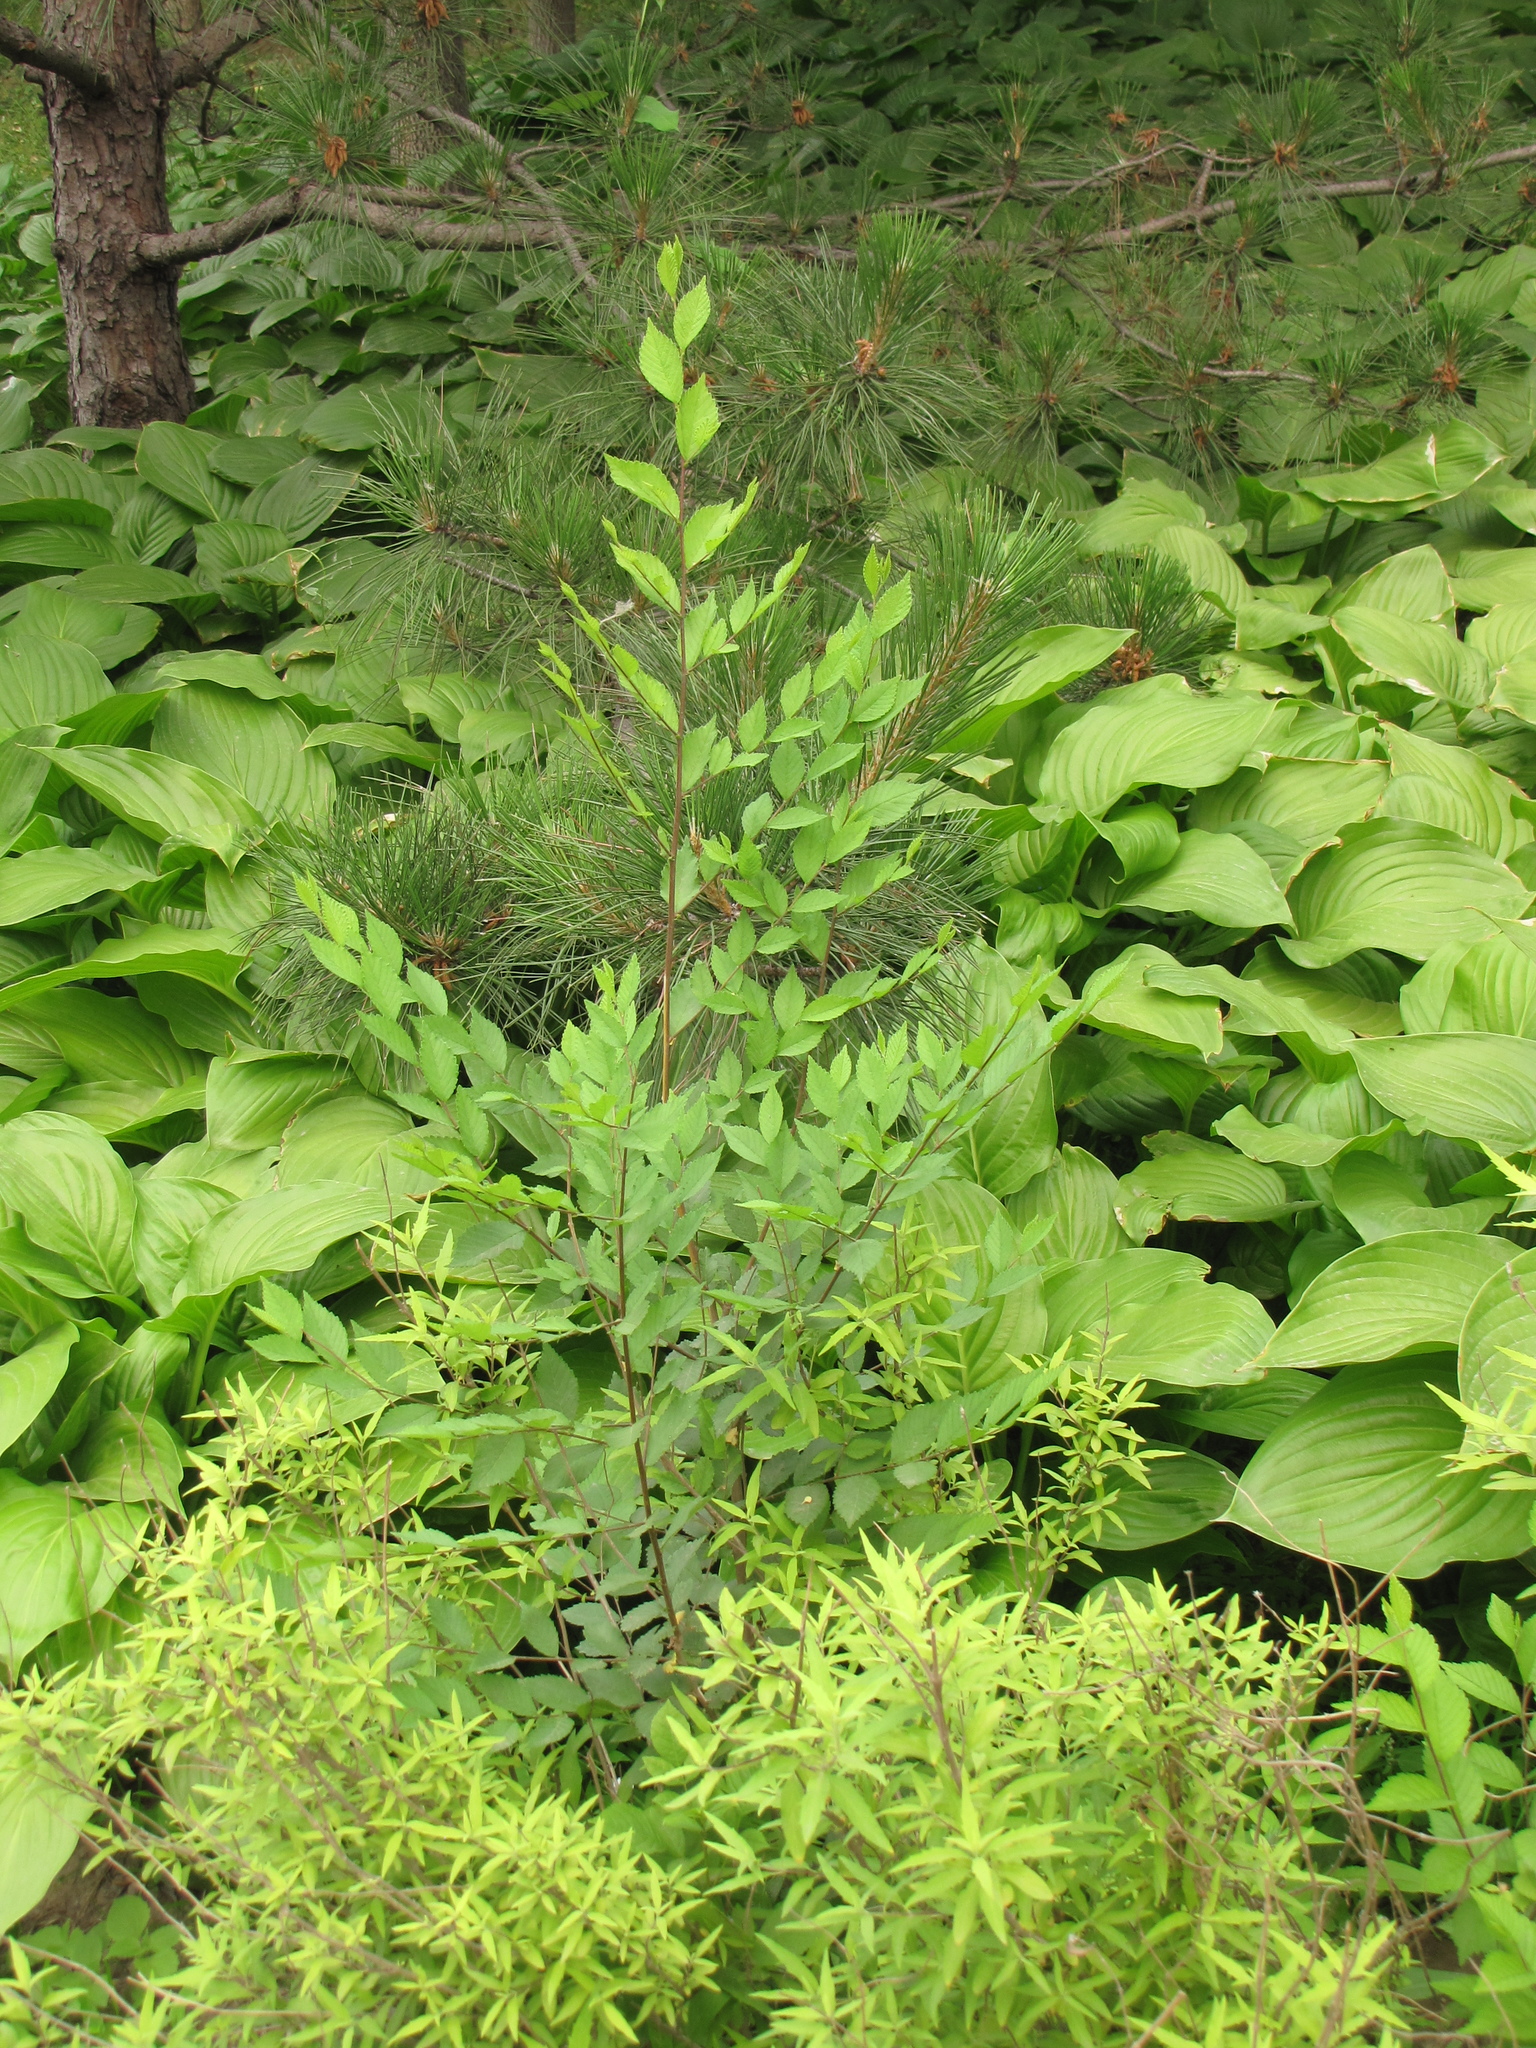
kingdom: Plantae
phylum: Tracheophyta
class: Magnoliopsida
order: Rosales
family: Ulmaceae
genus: Ulmus
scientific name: Ulmus pumila
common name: Siberian elm
